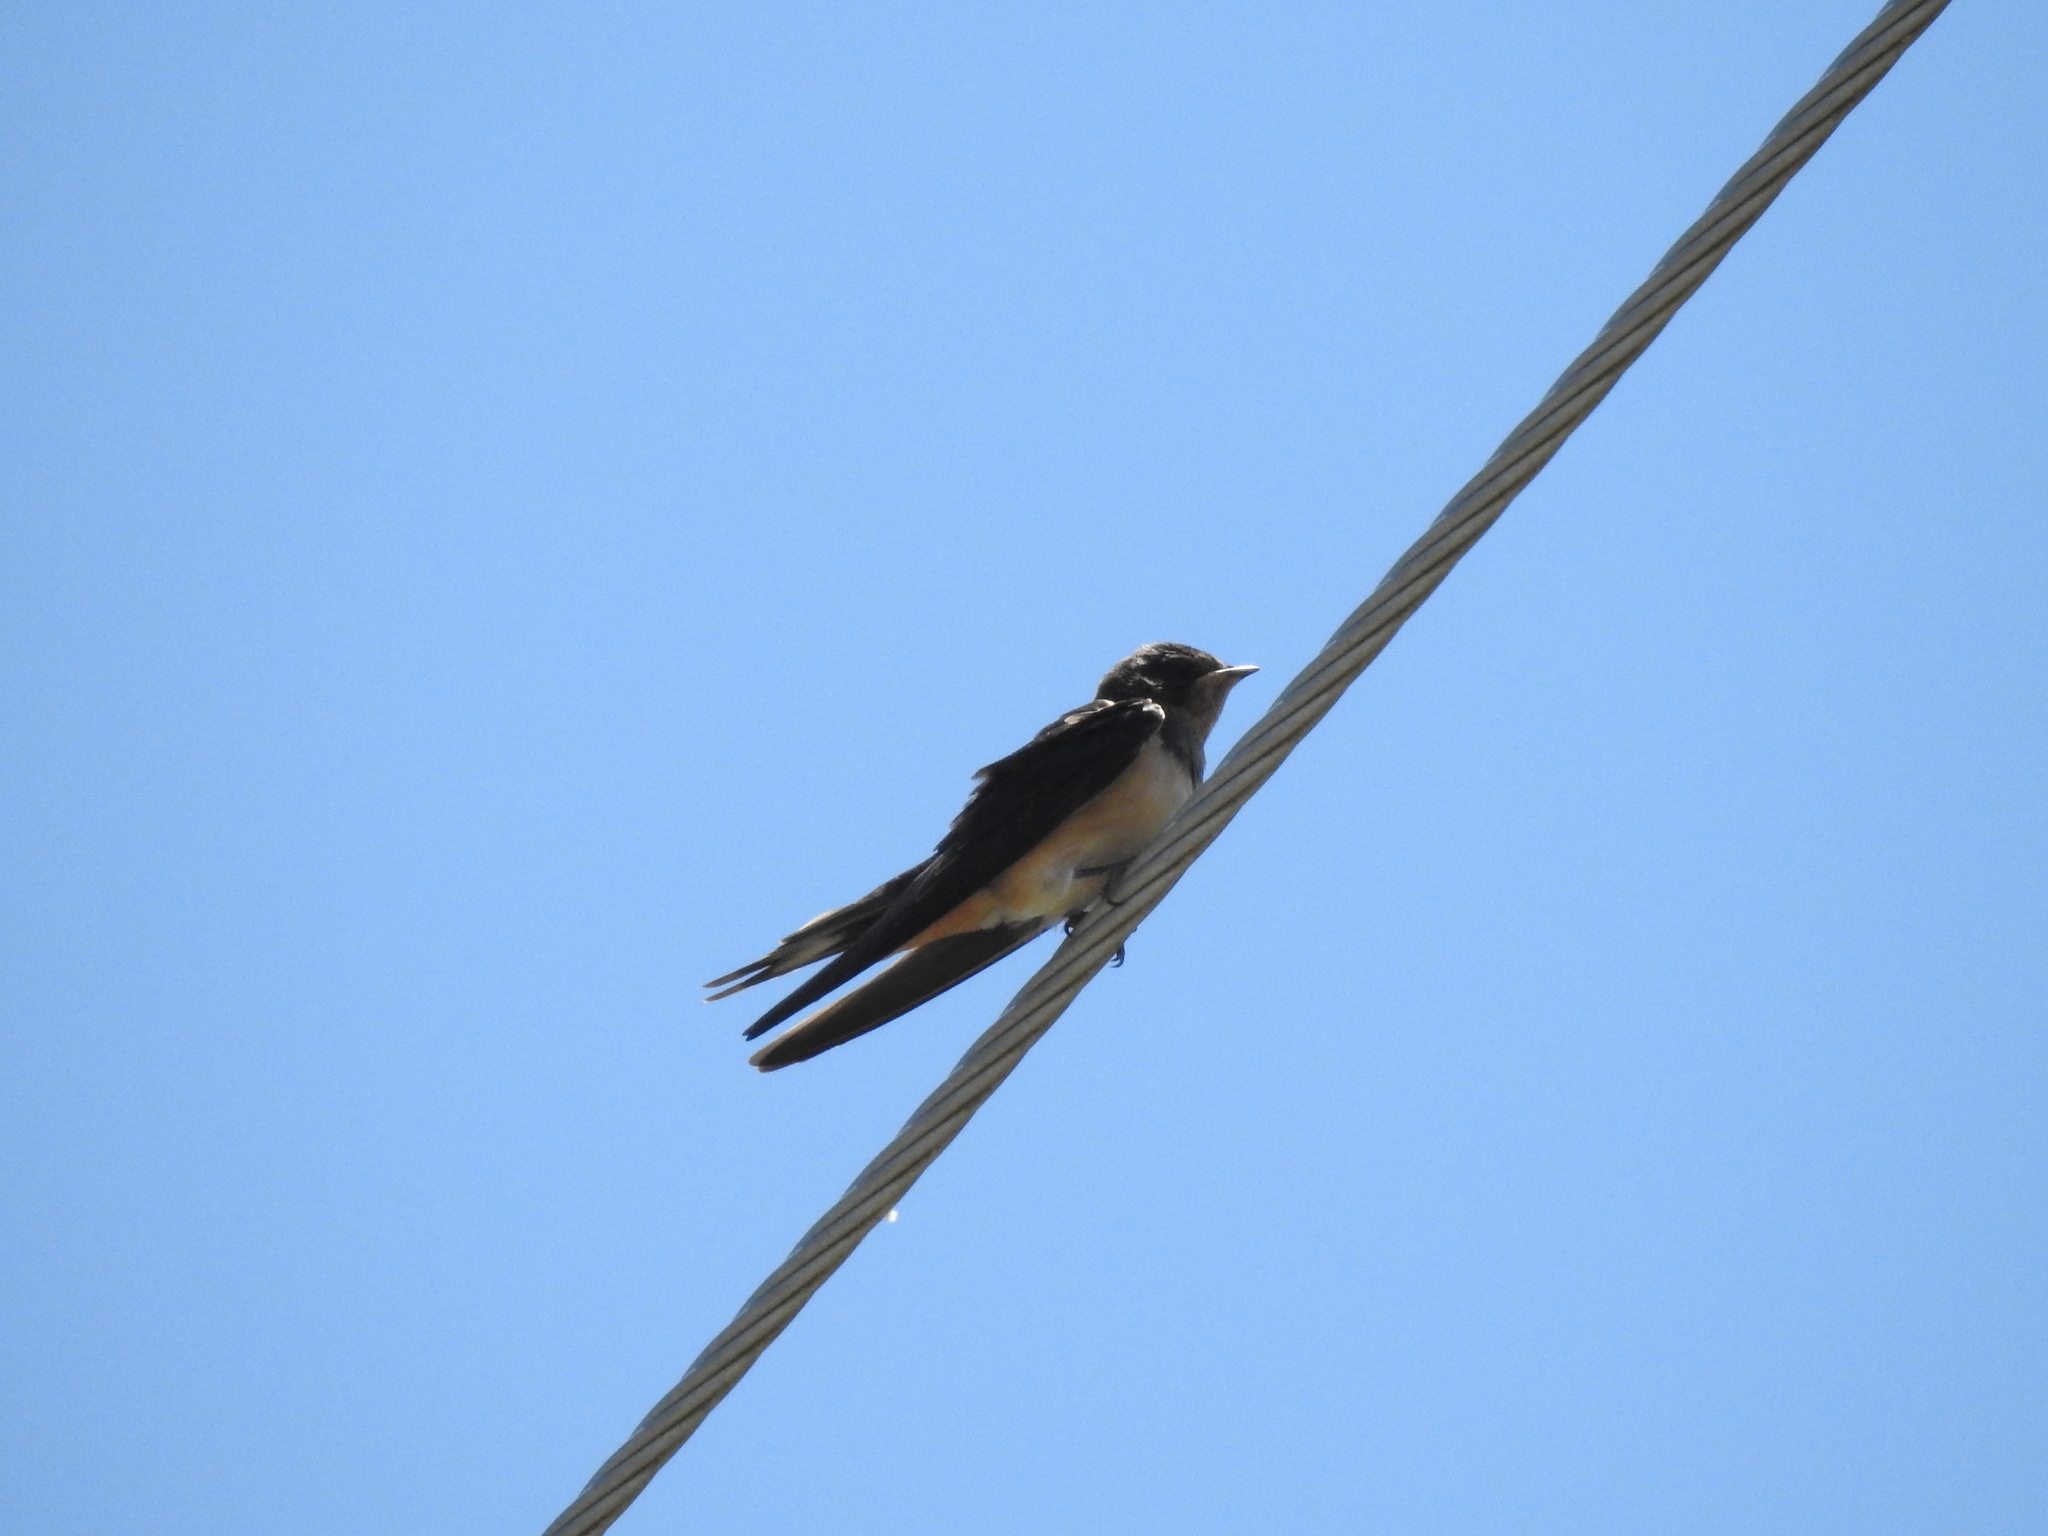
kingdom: Animalia
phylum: Chordata
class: Aves
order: Passeriformes
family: Hirundinidae
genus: Hirundo
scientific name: Hirundo rustica
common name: Barn swallow
